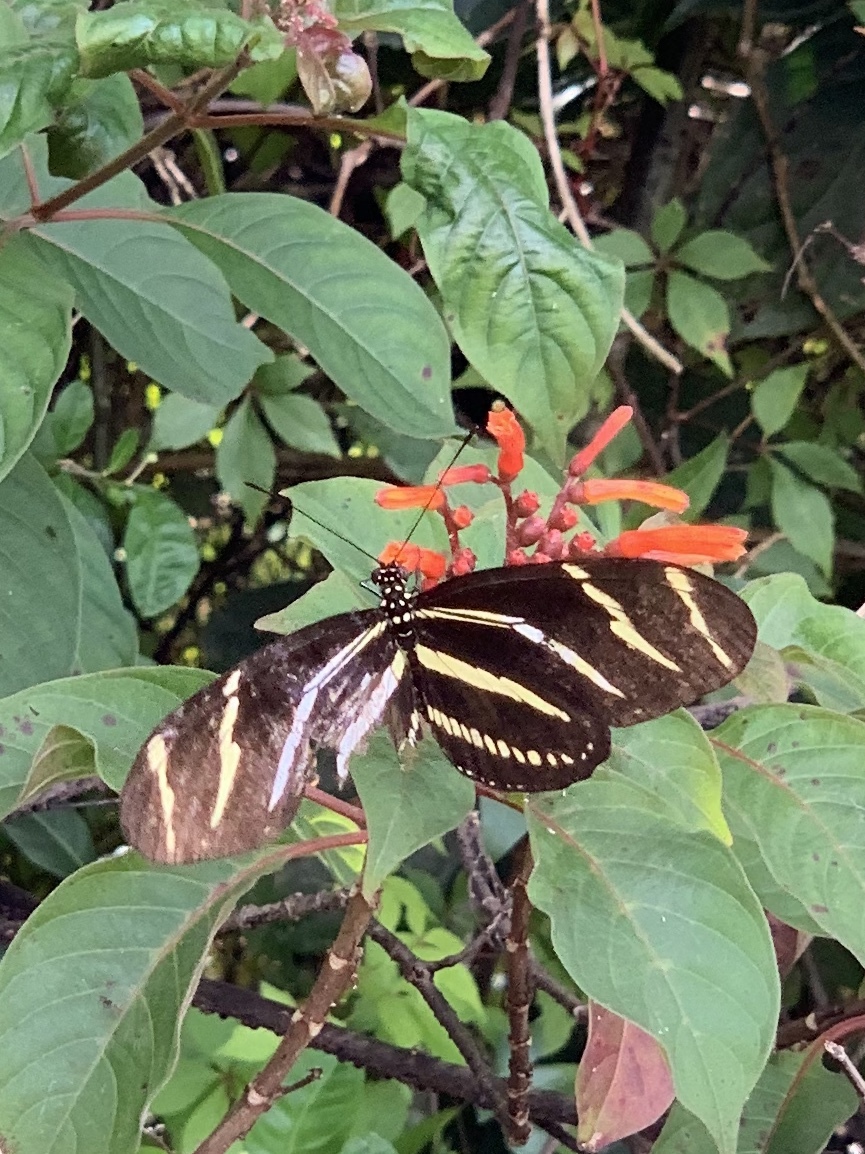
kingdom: Animalia
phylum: Arthropoda
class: Insecta
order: Lepidoptera
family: Nymphalidae
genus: Heliconius
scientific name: Heliconius charithonia
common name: Zebra long wing
